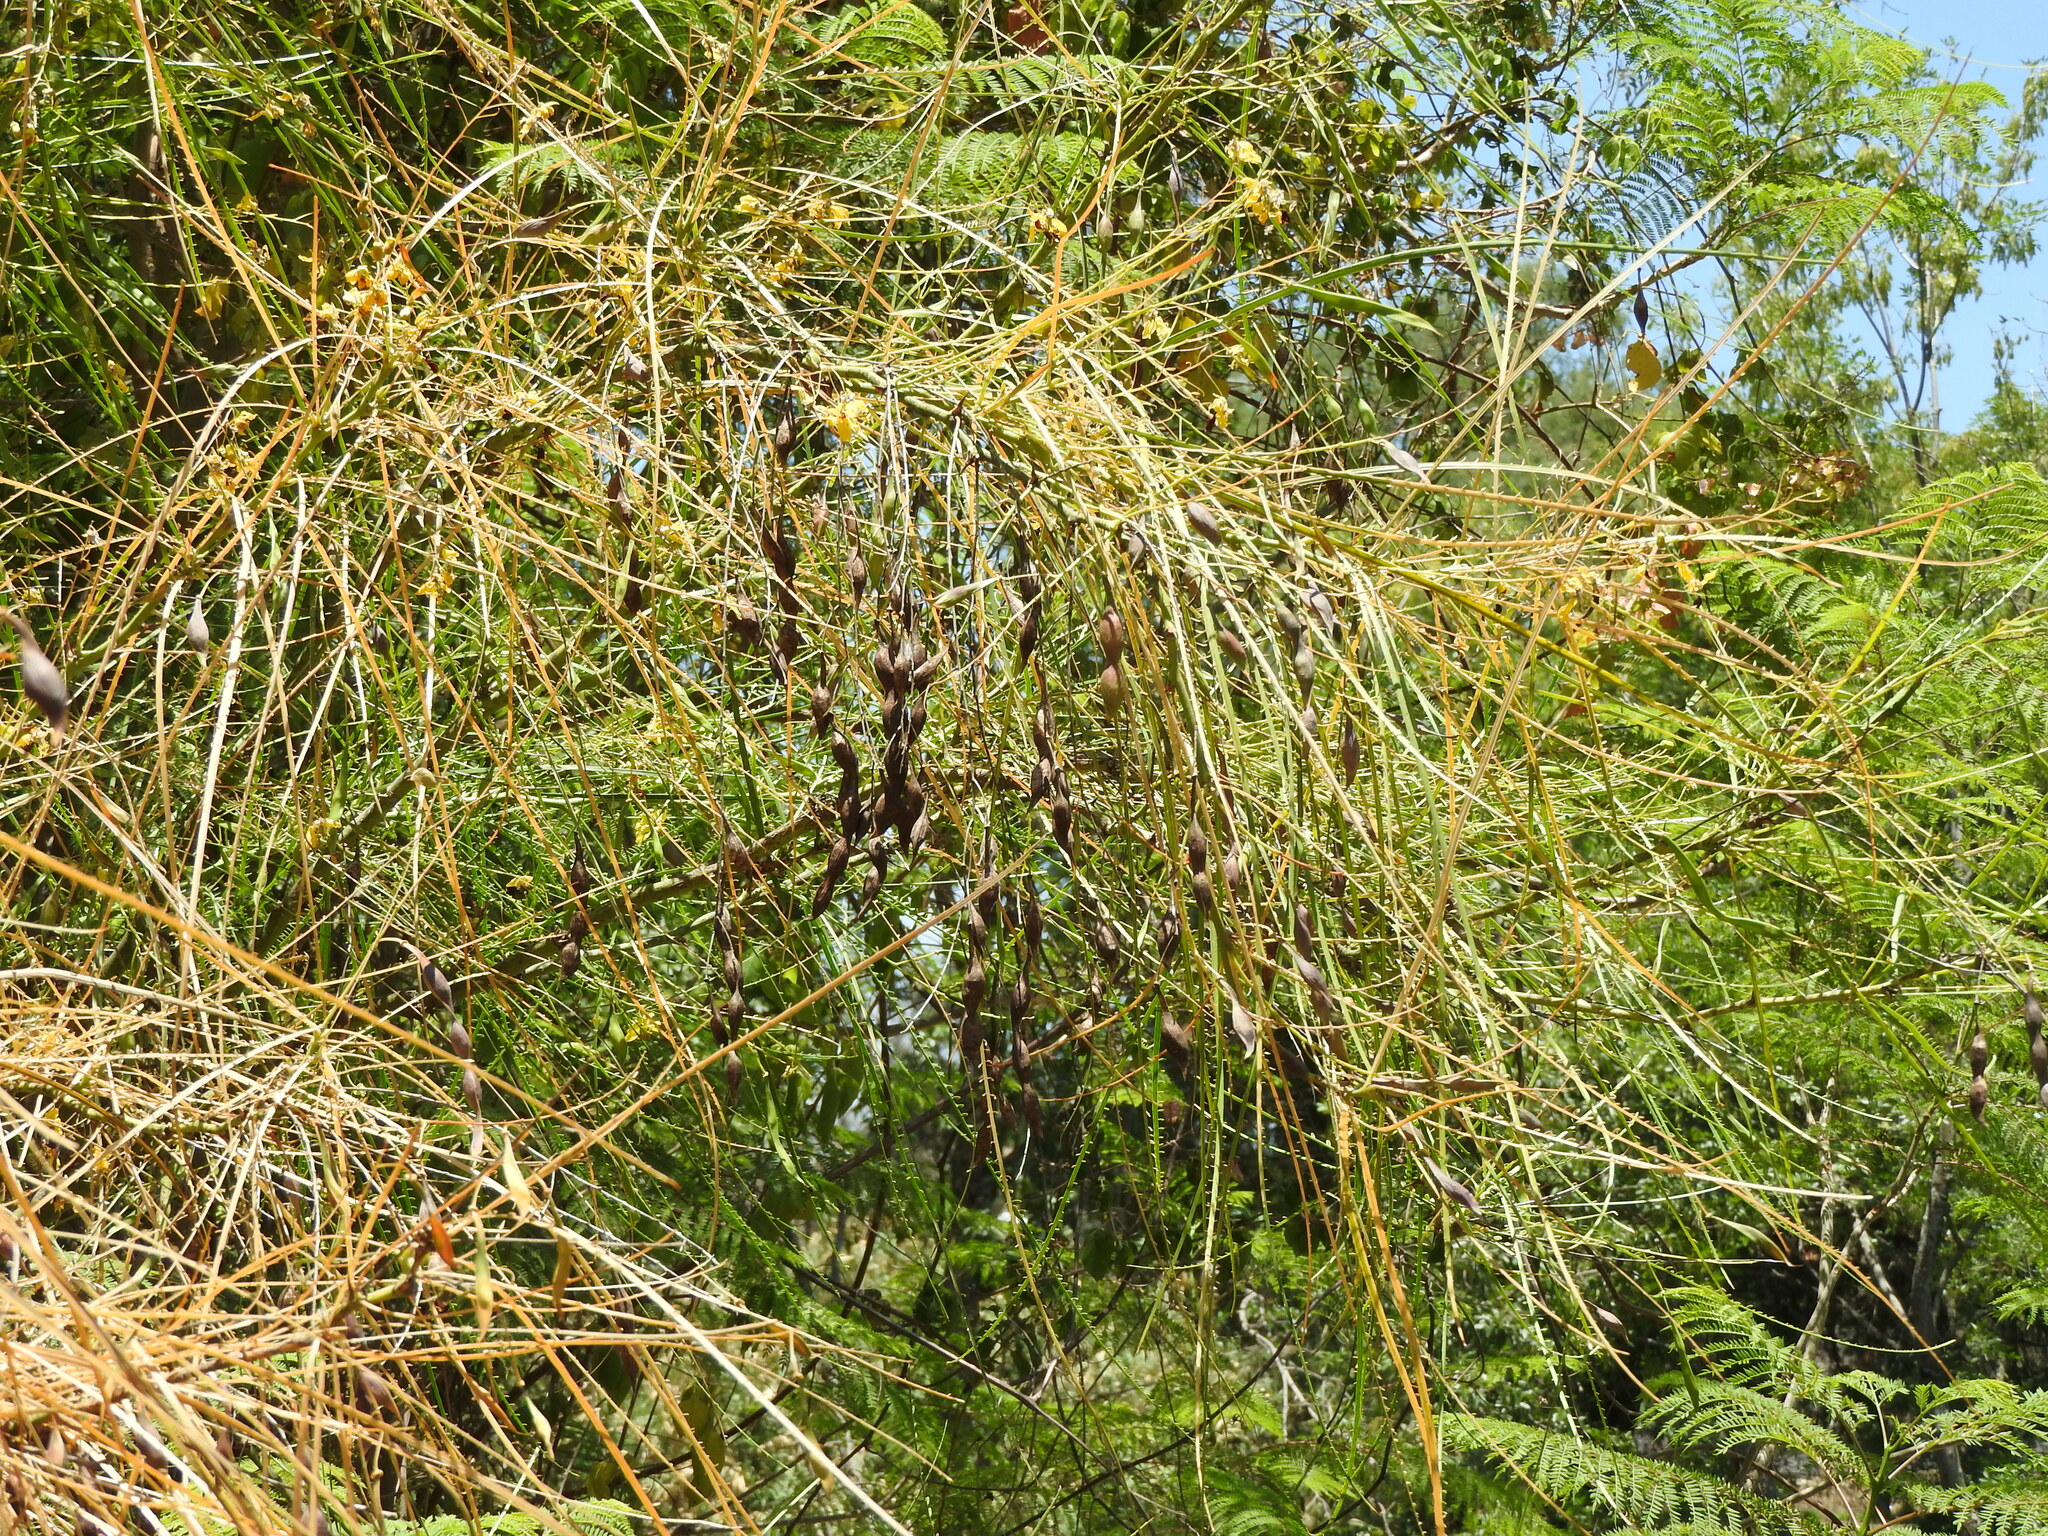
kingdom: Plantae
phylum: Tracheophyta
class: Magnoliopsida
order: Fabales
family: Fabaceae
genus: Parkinsonia
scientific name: Parkinsonia aculeata
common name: Jerusalem thorn
